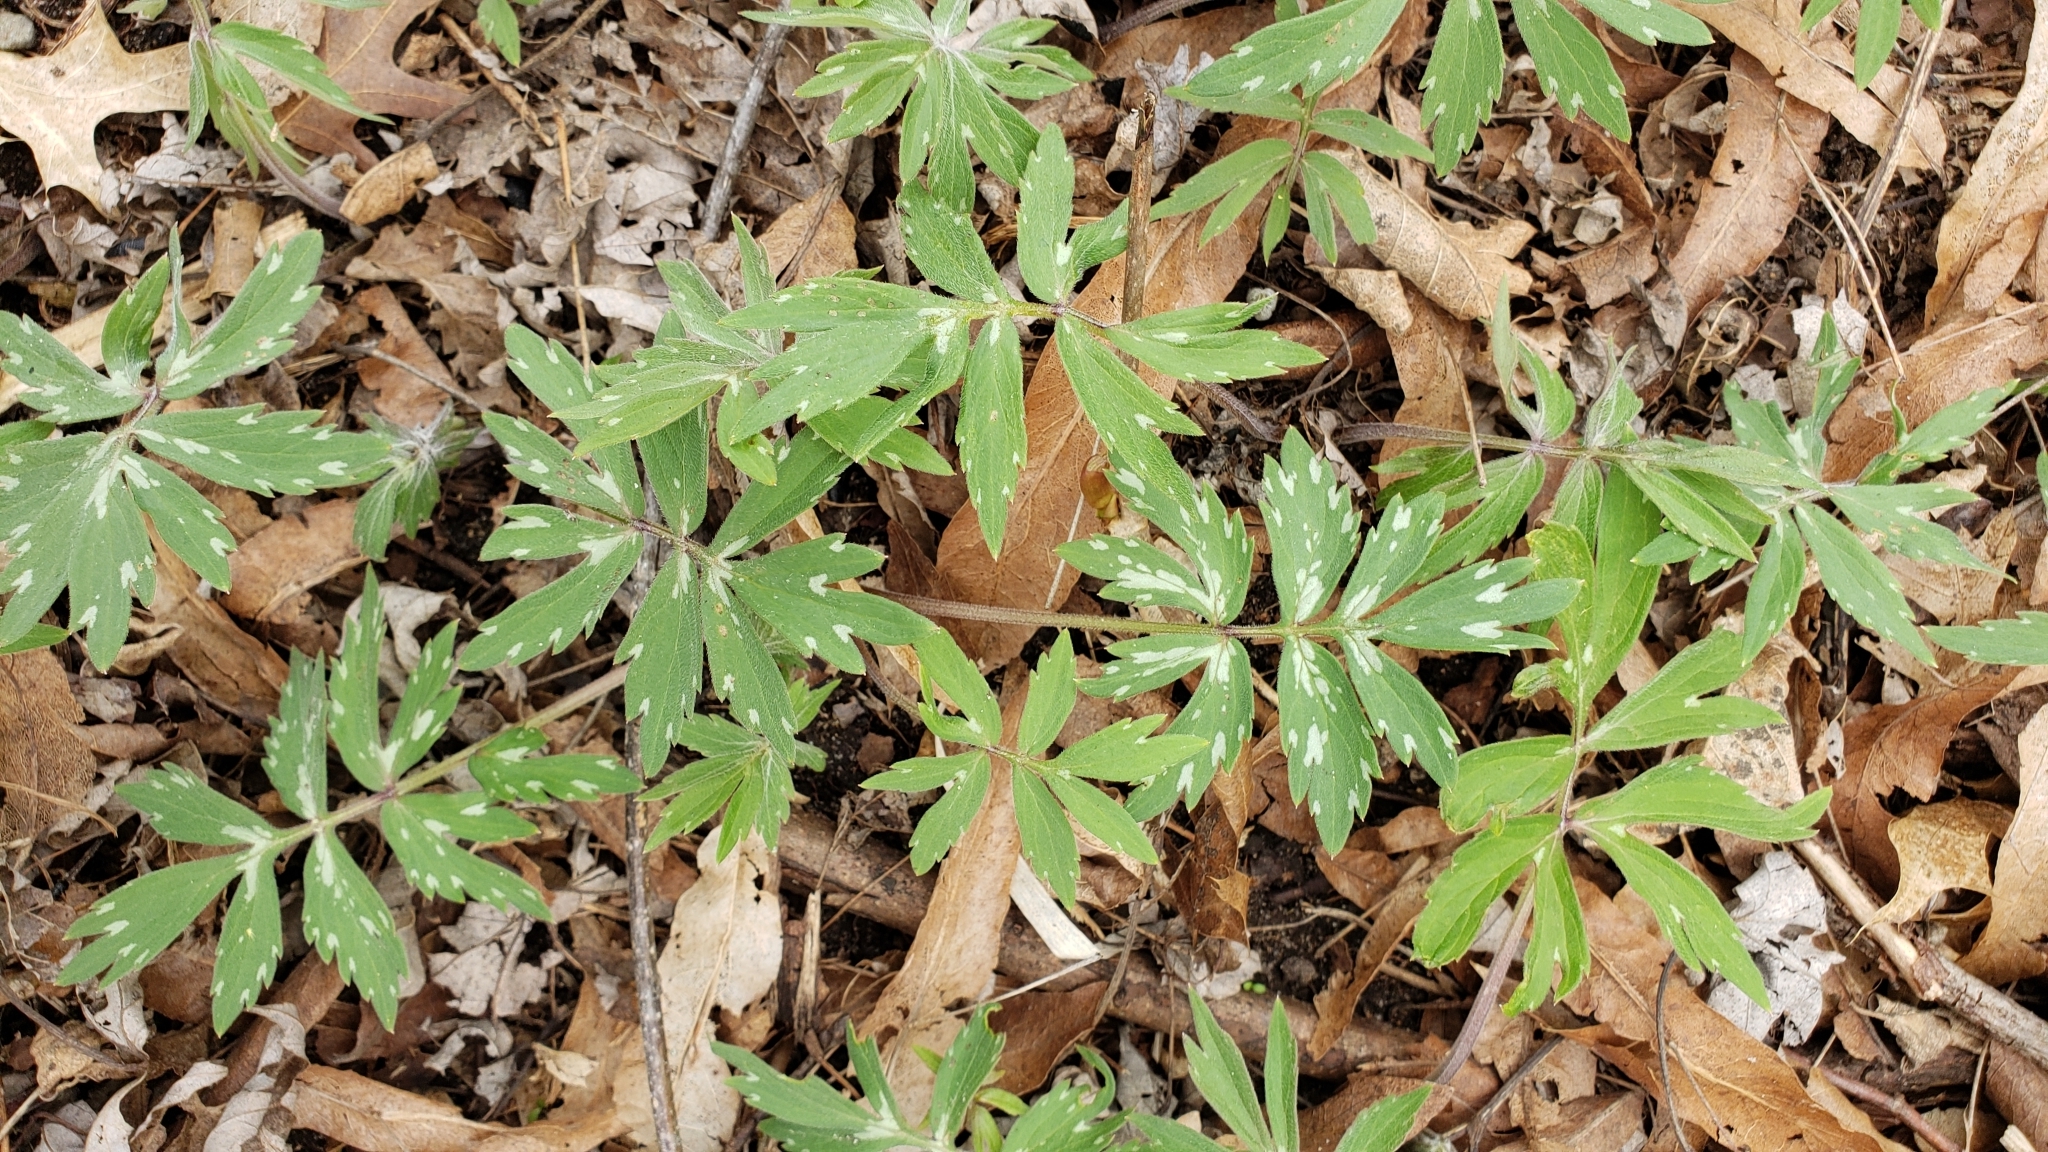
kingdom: Plantae
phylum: Tracheophyta
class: Magnoliopsida
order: Boraginales
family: Hydrophyllaceae
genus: Hydrophyllum
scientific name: Hydrophyllum virginianum
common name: Virginia waterleaf
